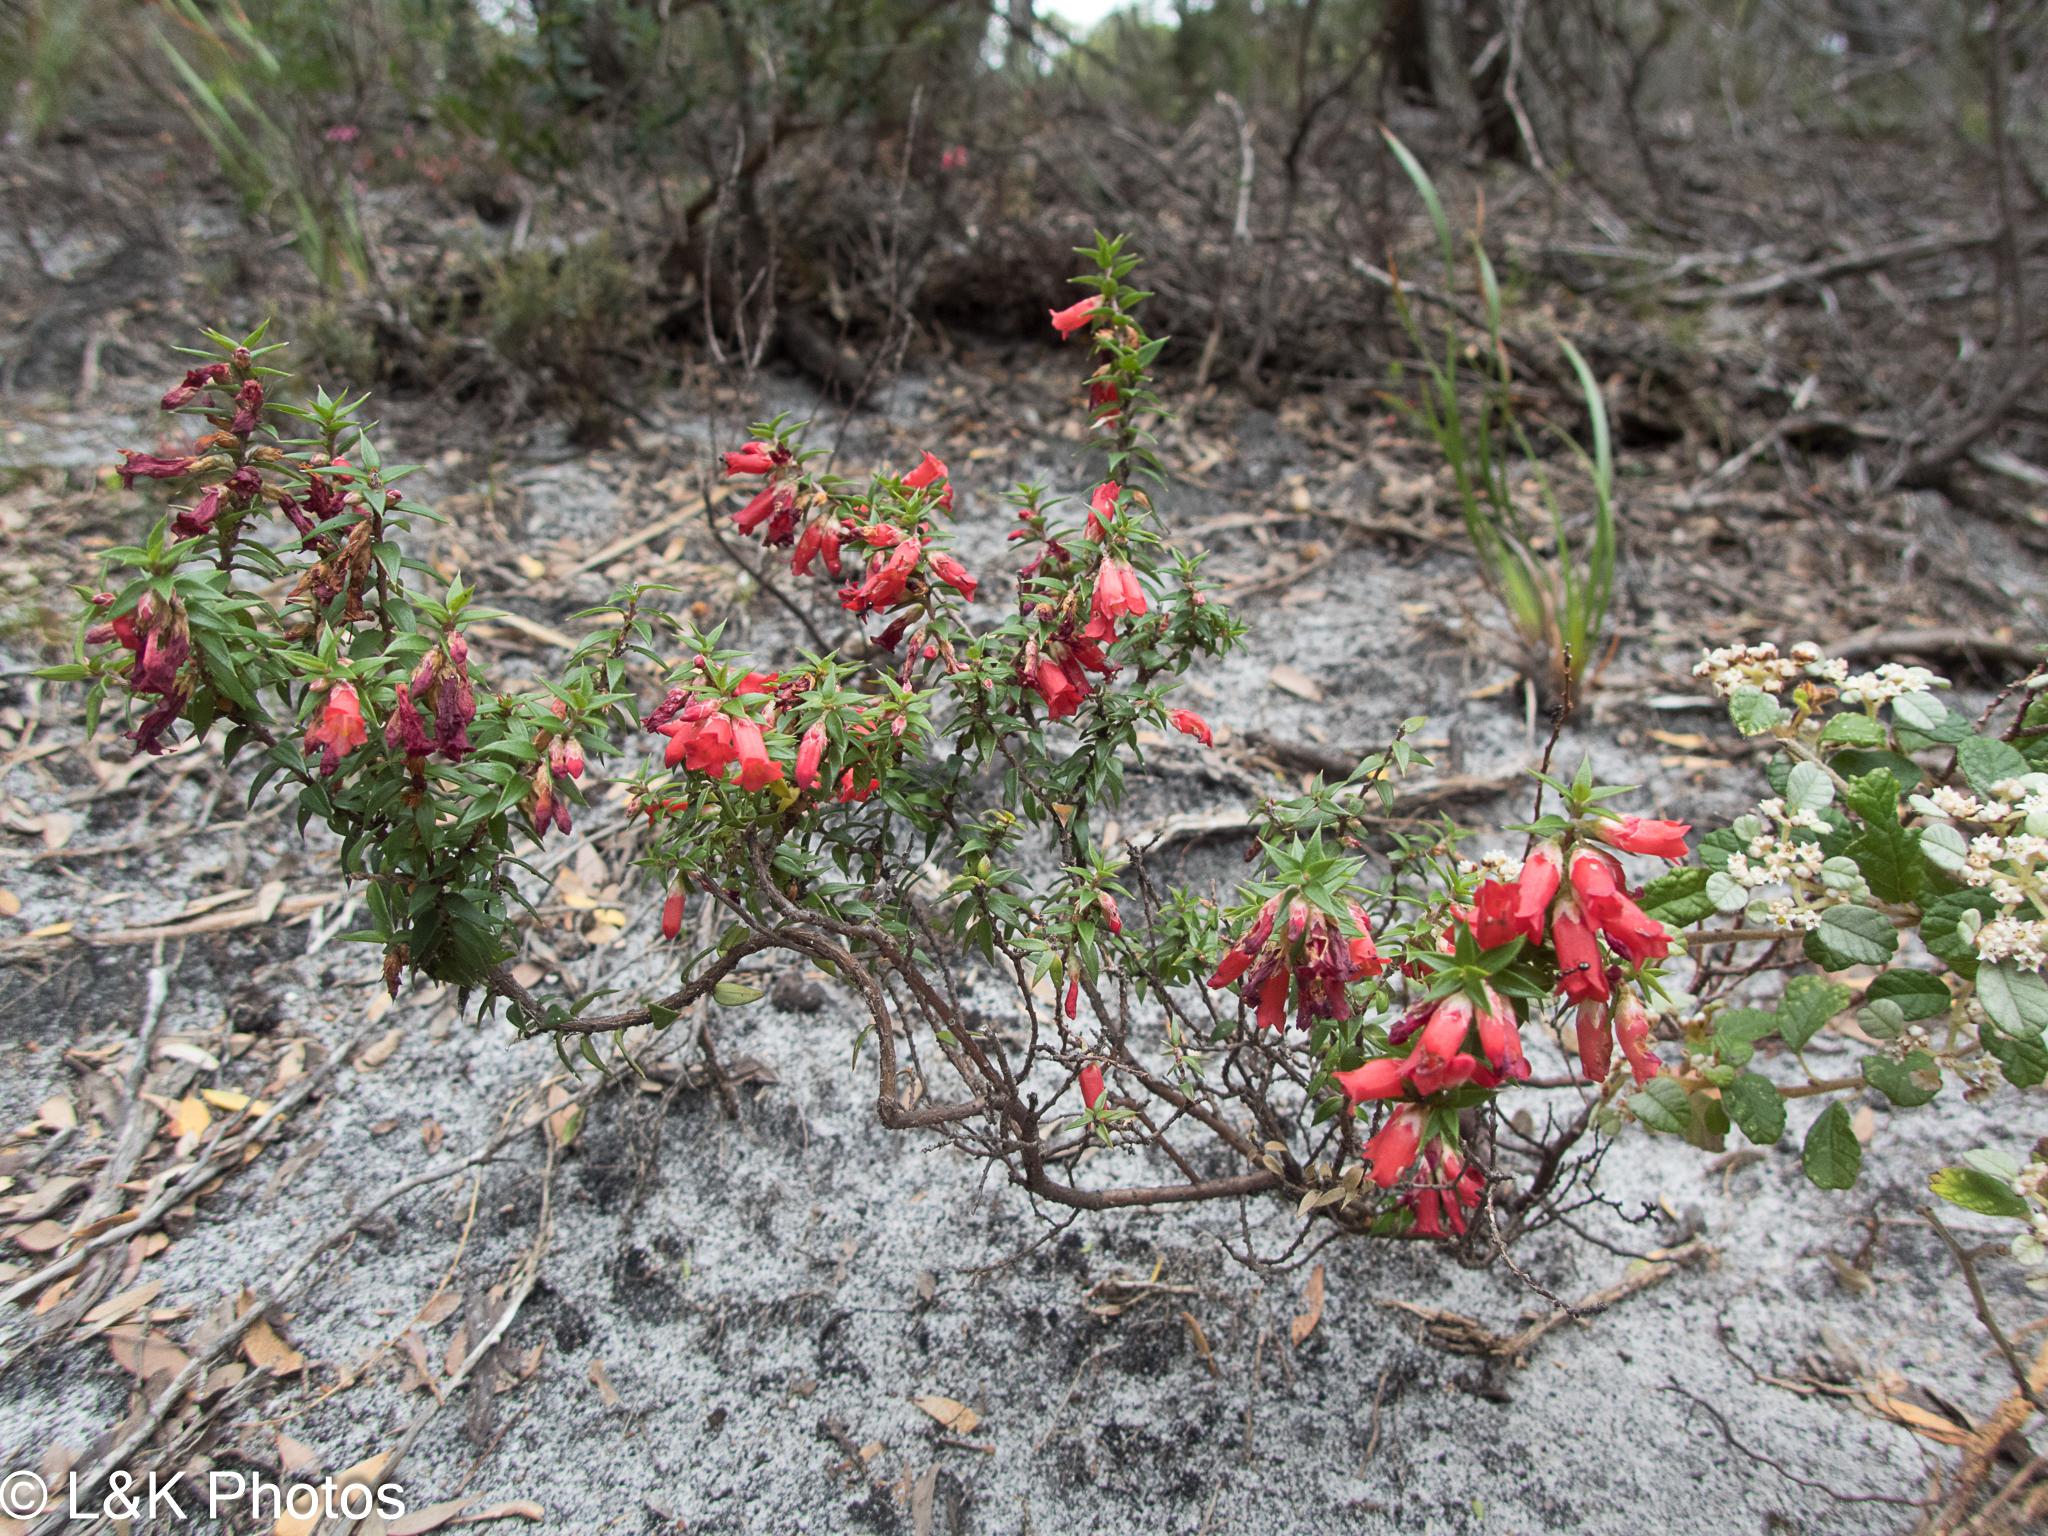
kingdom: Plantae
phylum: Tracheophyta
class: Magnoliopsida
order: Ericales
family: Ericaceae
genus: Epacris
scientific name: Epacris impressa
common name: Common-heath
